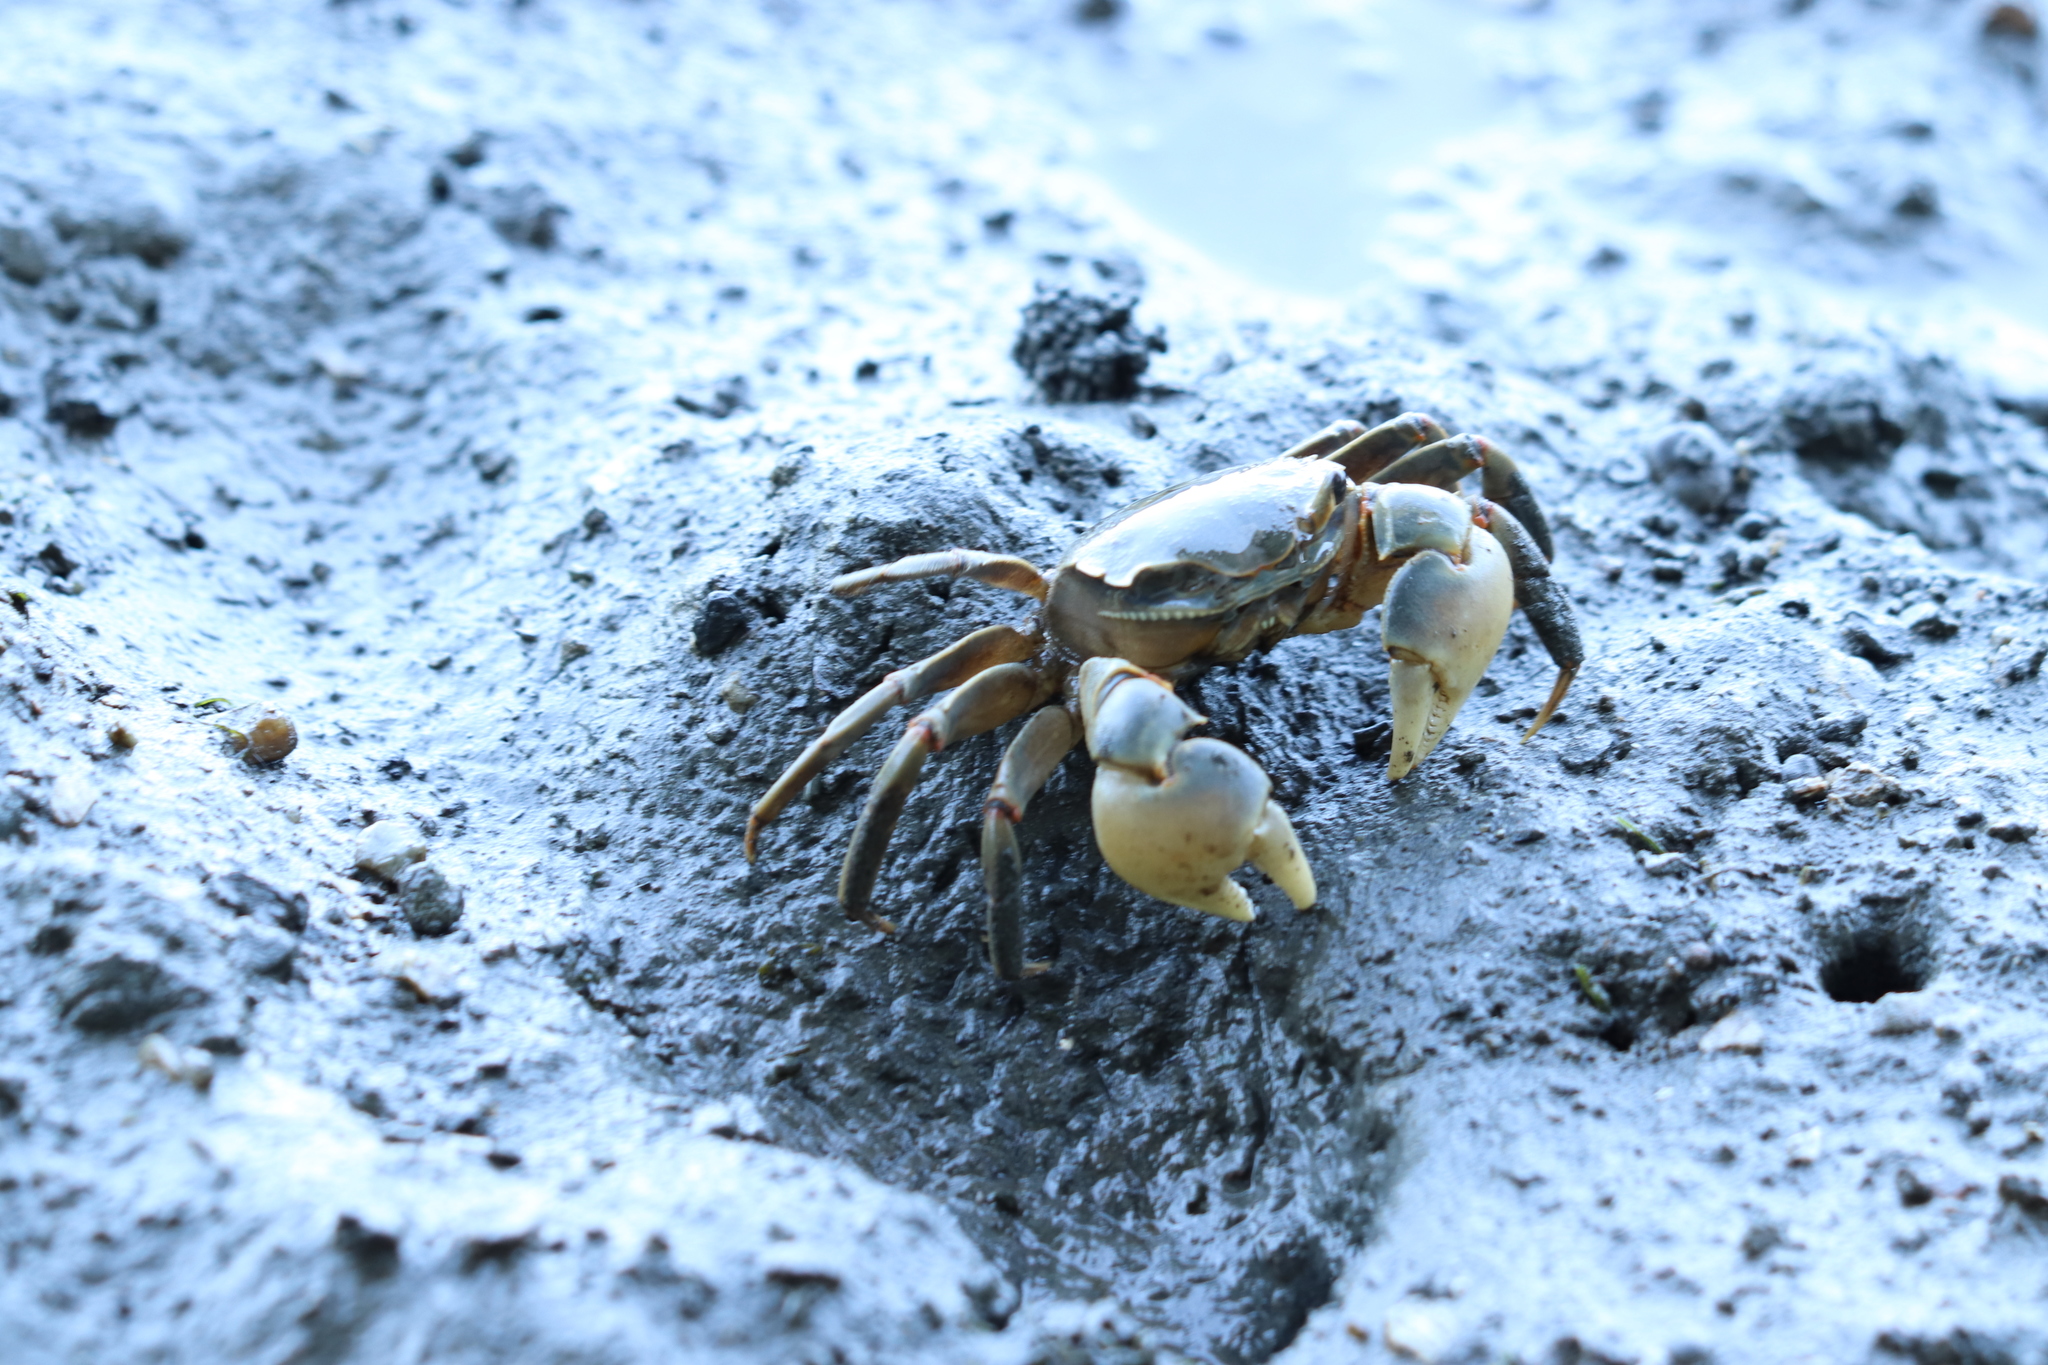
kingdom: Animalia
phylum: Arthropoda
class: Malacostraca
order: Decapoda
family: Varunidae
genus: Helice
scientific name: Helice tridens
